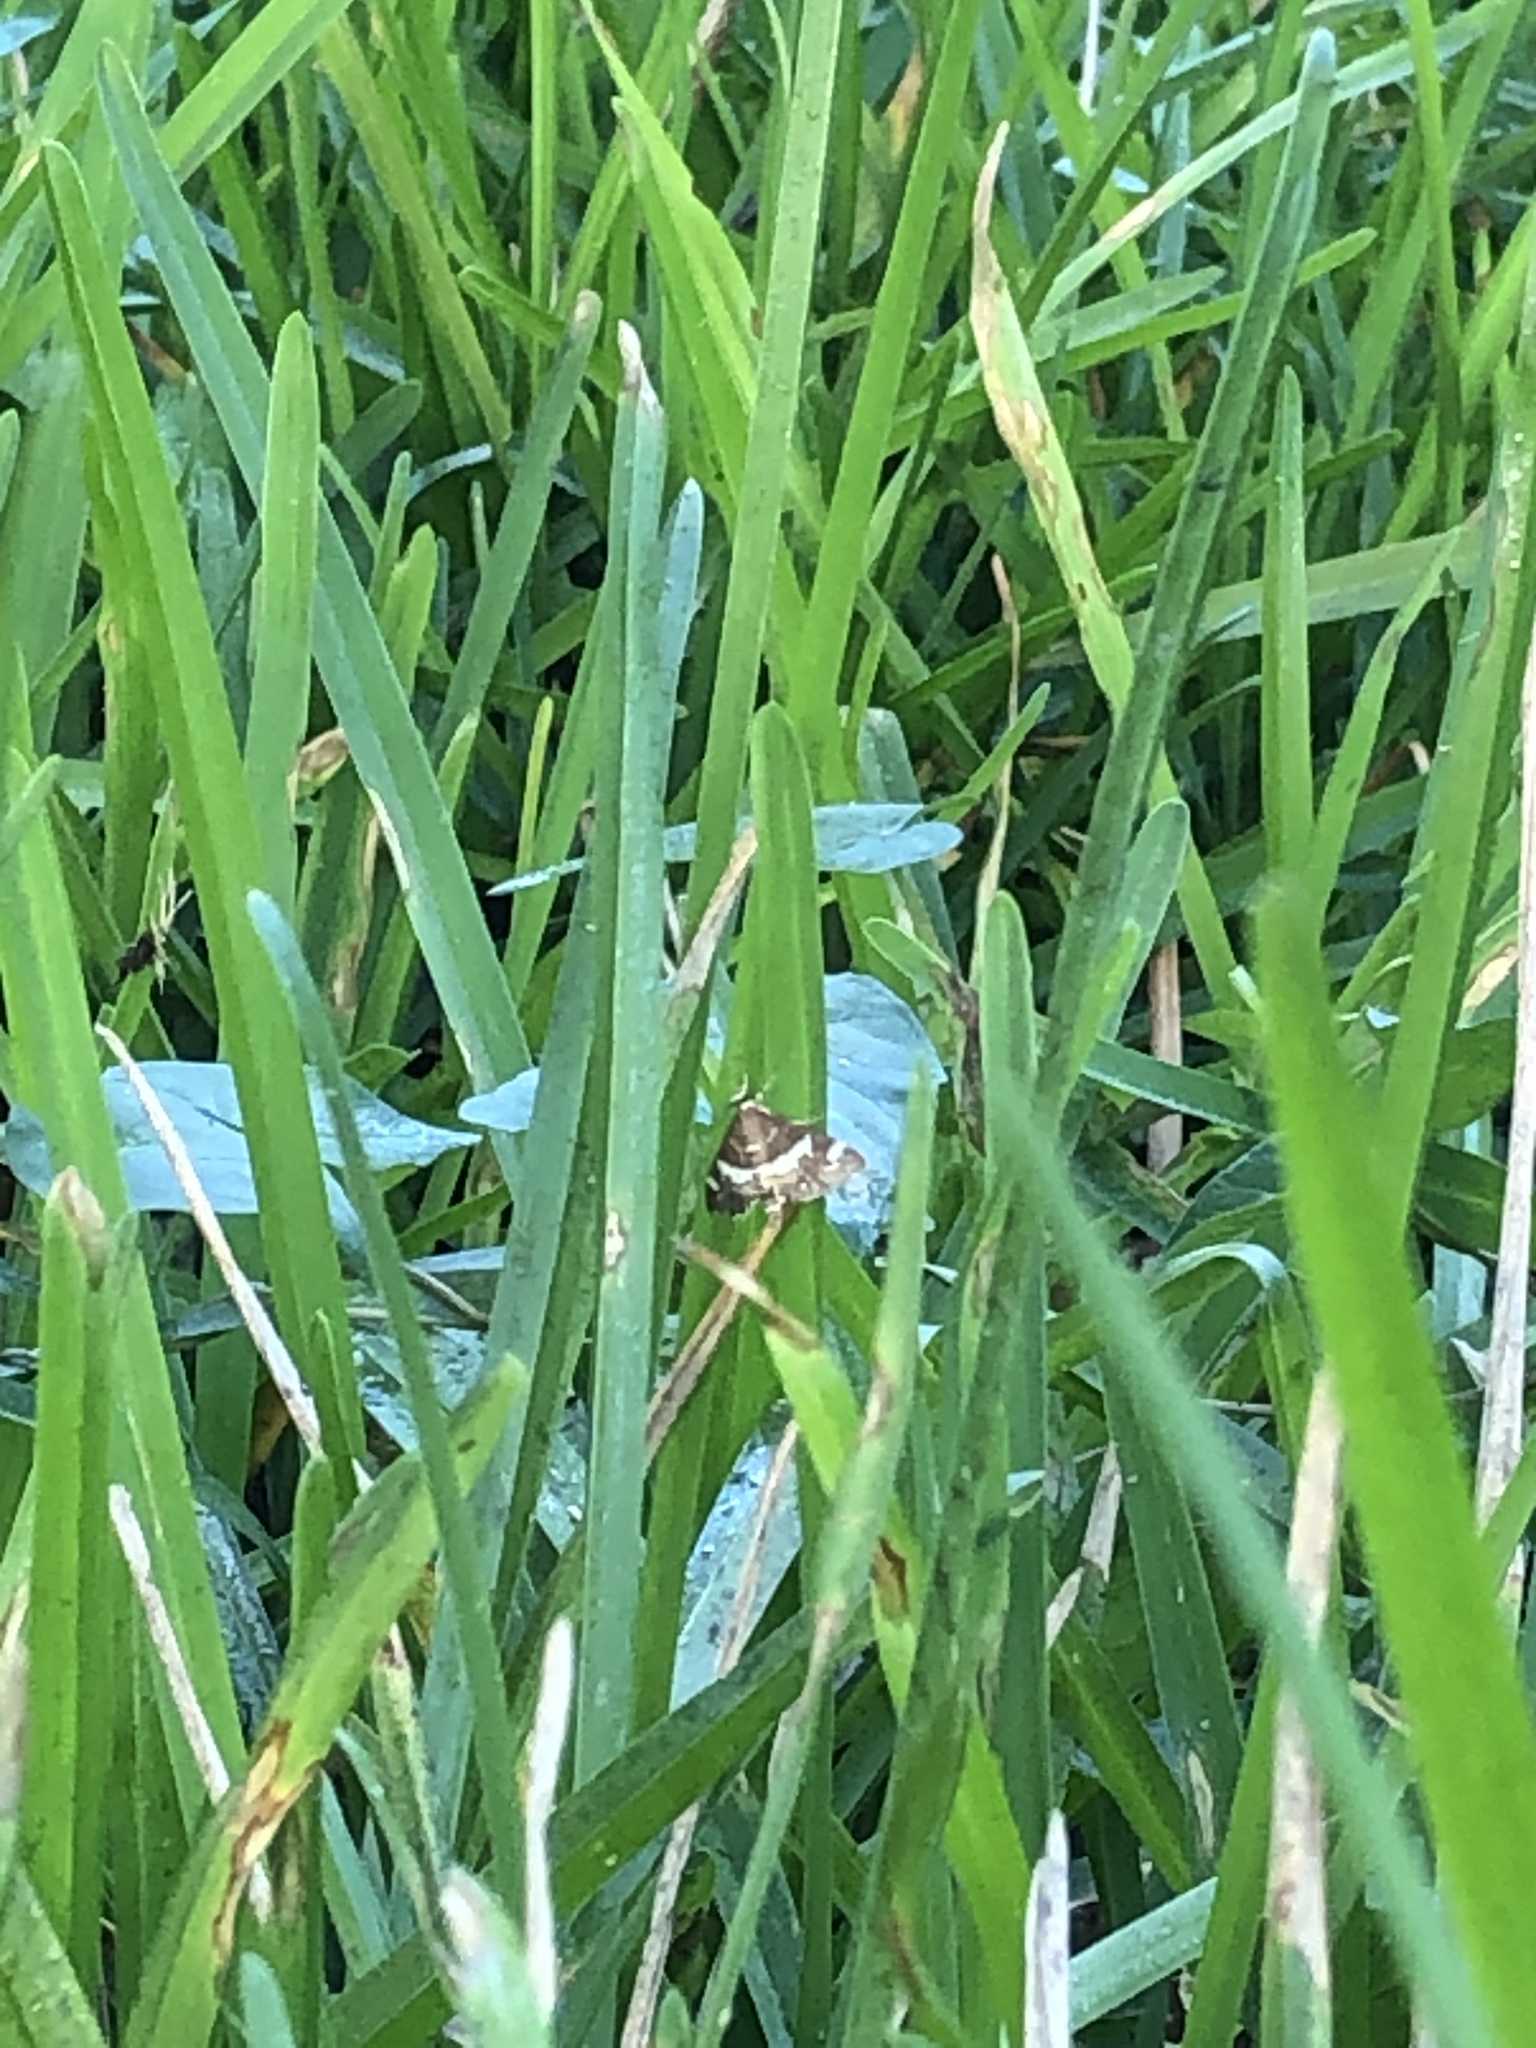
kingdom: Animalia
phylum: Arthropoda
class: Insecta
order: Lepidoptera
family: Crambidae
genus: Spoladea
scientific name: Spoladea recurvalis
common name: Beet webworm moth
